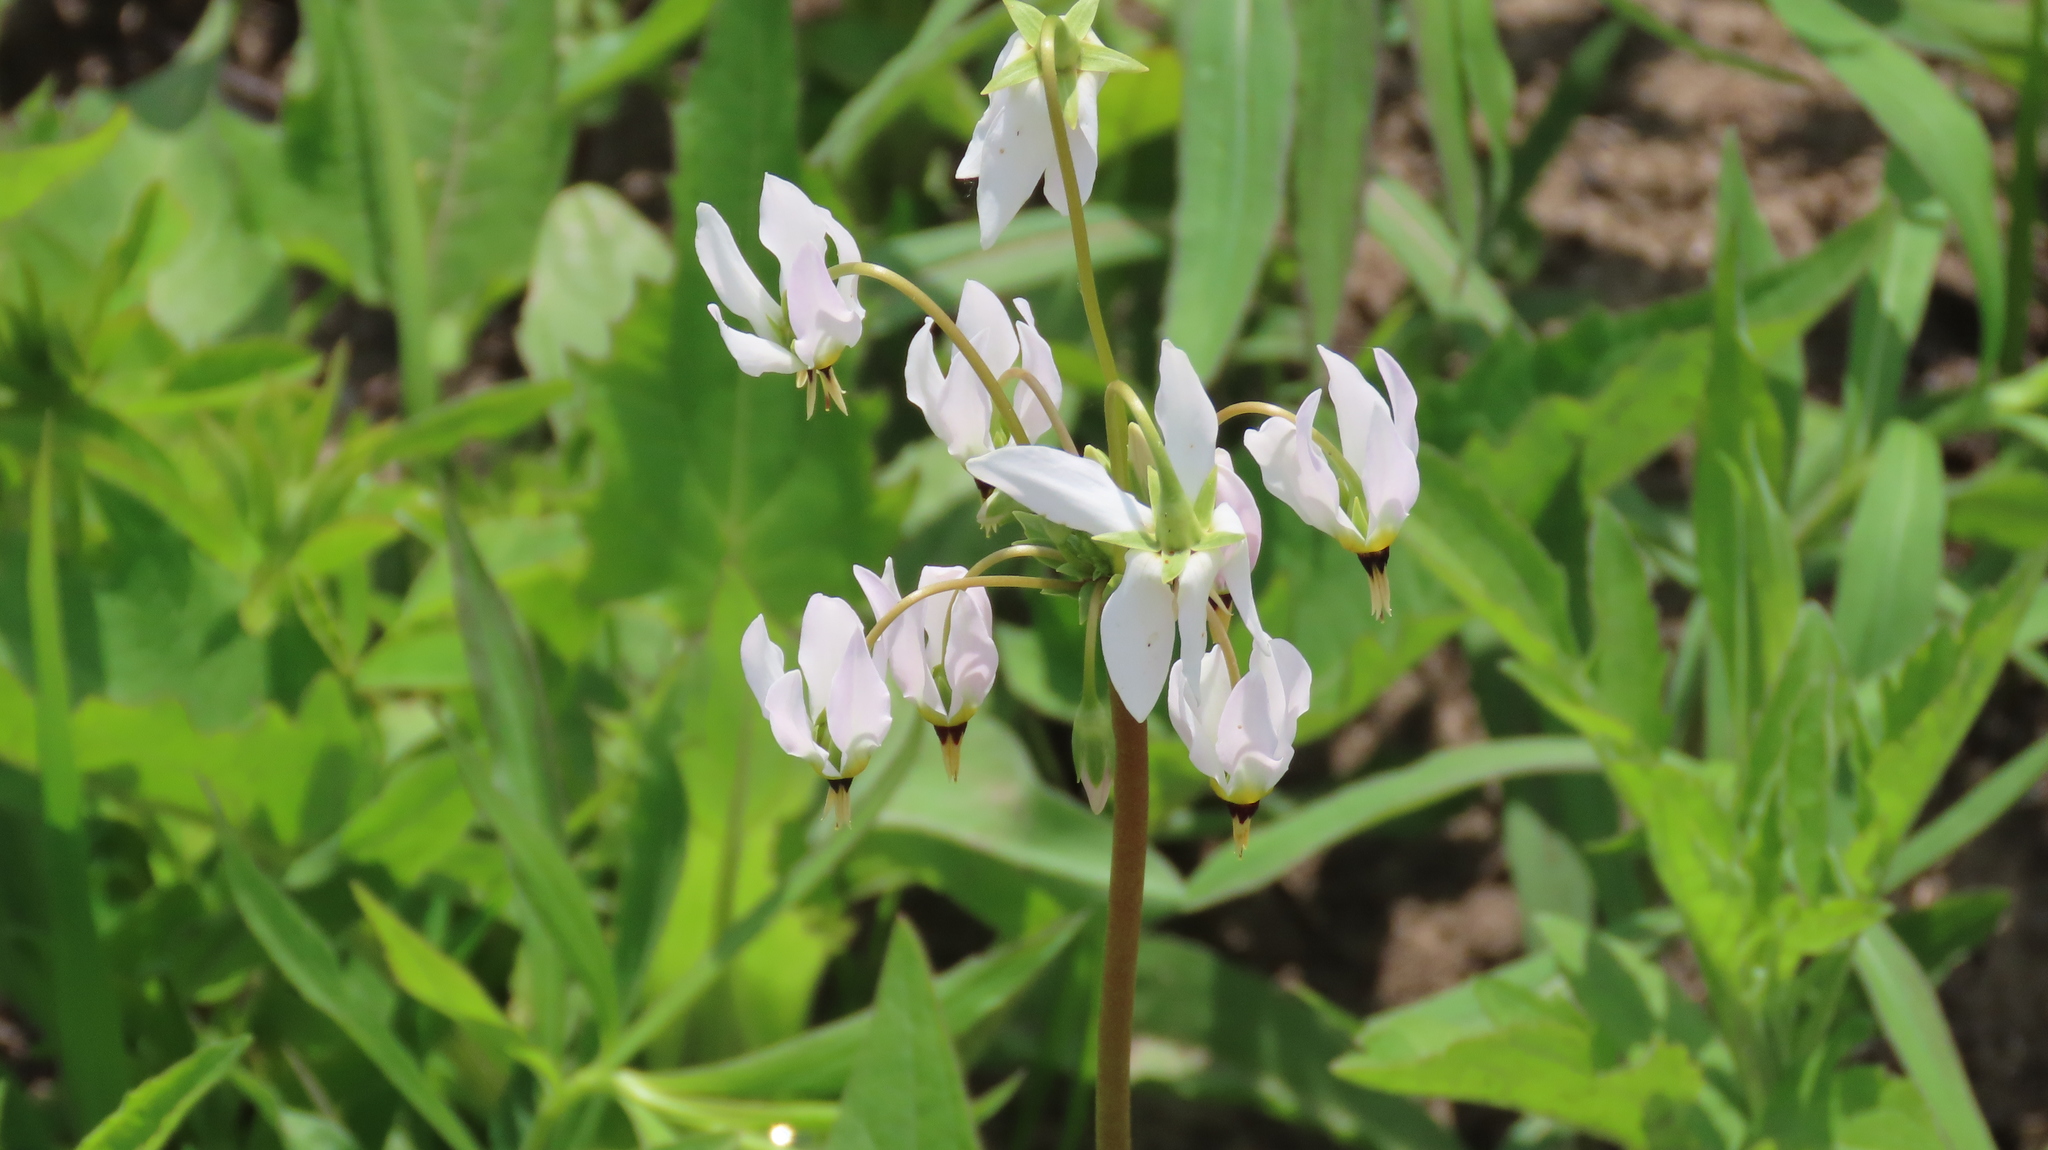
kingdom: Plantae
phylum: Tracheophyta
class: Magnoliopsida
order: Ericales
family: Primulaceae
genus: Dodecatheon
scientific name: Dodecatheon meadia
